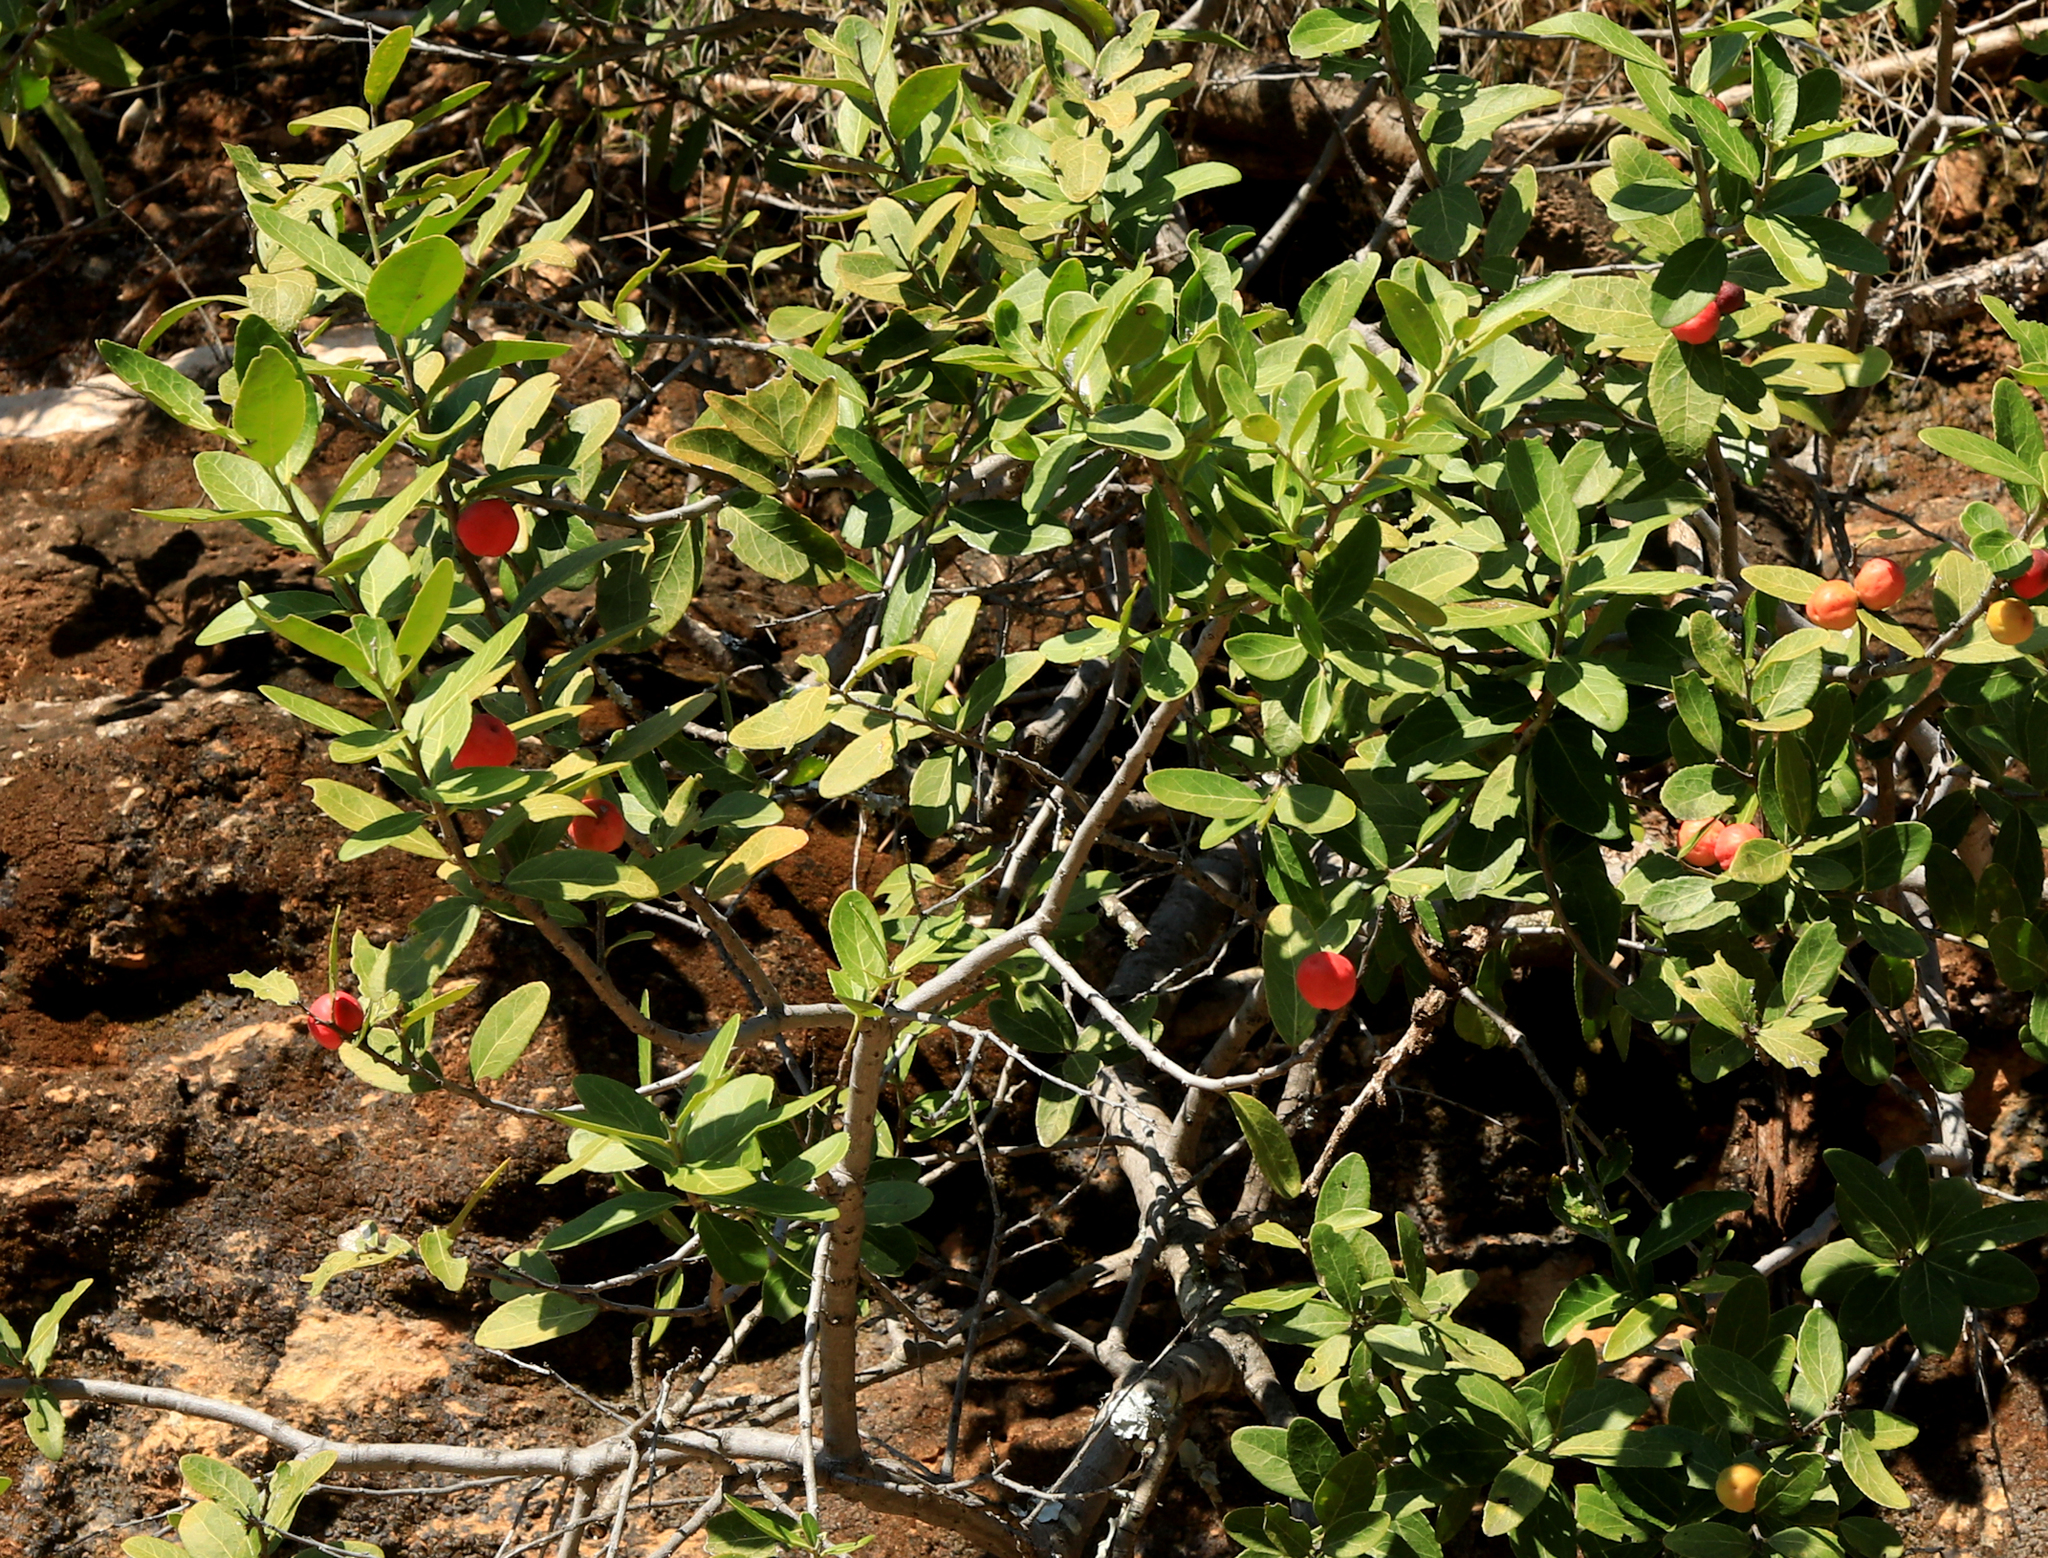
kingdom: Plantae
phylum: Tracheophyta
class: Magnoliopsida
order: Celastrales
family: Celastraceae
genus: Mystroxylon
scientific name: Mystroxylon aethiopicum
